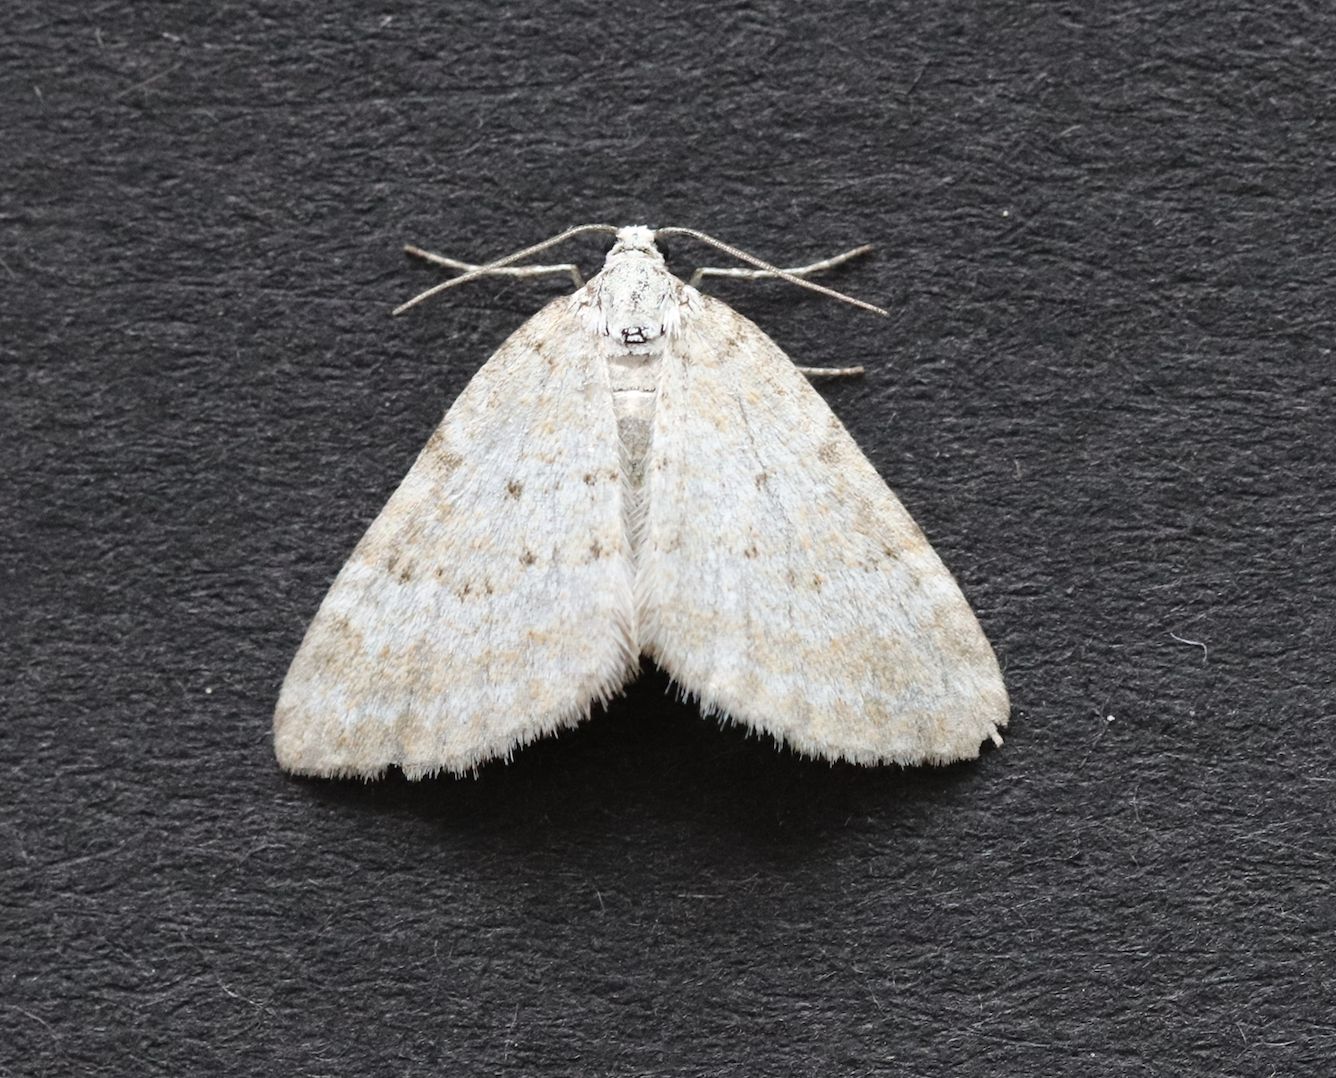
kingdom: Animalia
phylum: Arthropoda
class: Insecta
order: Lepidoptera
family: Geometridae
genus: Perizoma
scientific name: Perizoma albulata
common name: Grass rivulet
